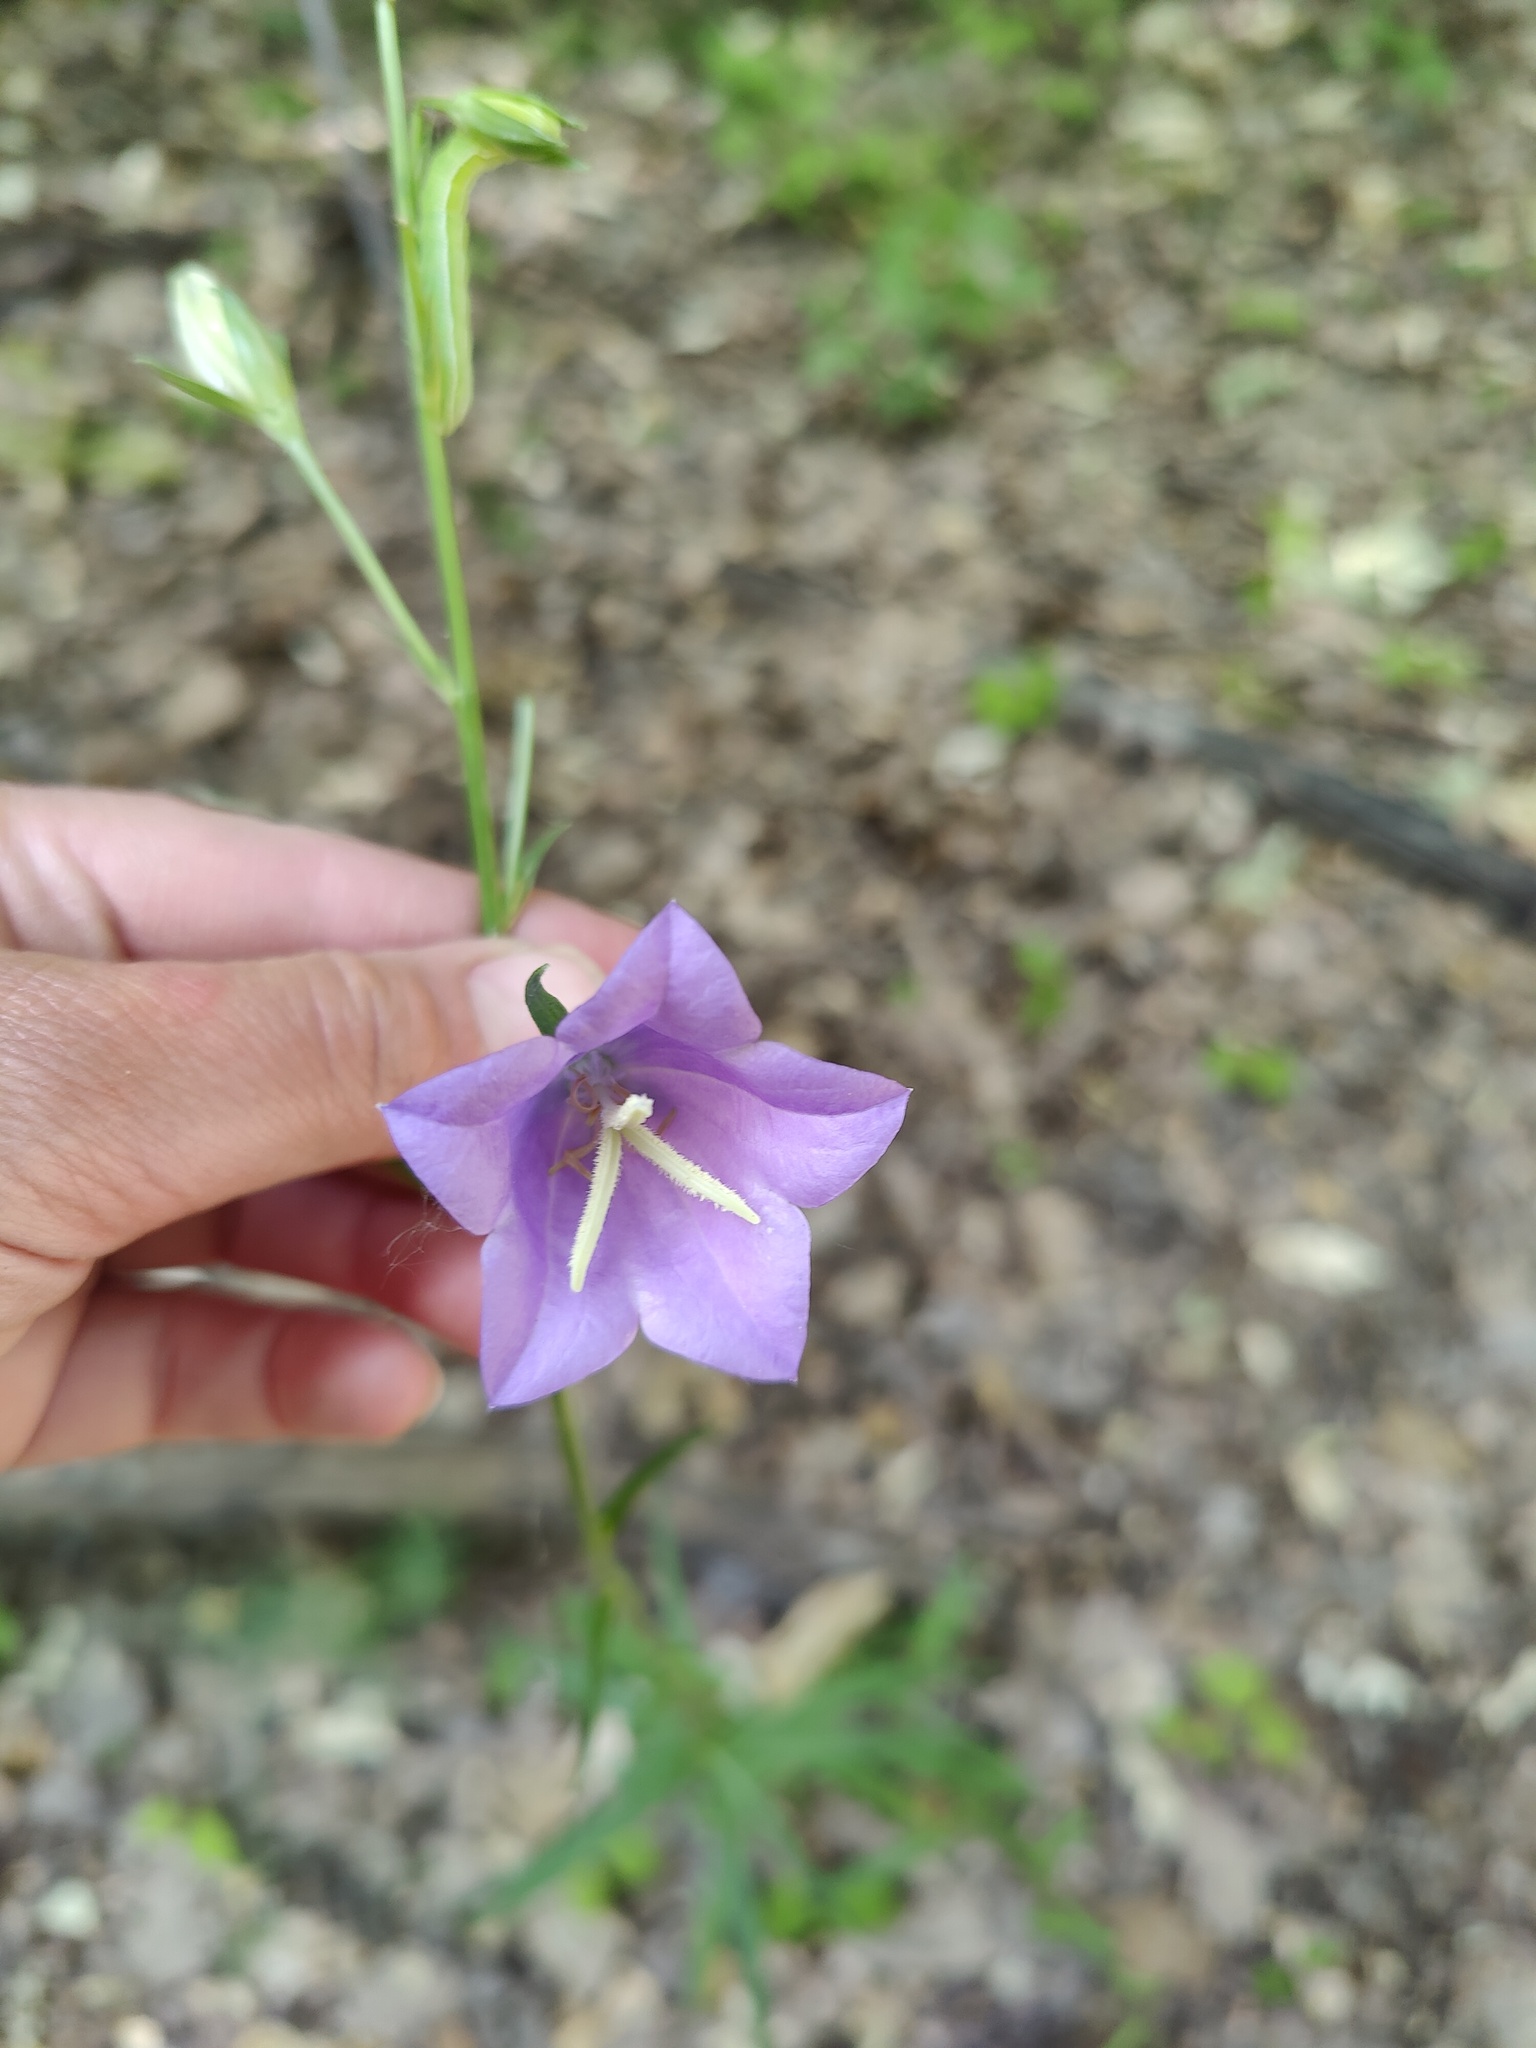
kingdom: Plantae
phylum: Tracheophyta
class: Magnoliopsida
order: Asterales
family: Campanulaceae
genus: Campanula
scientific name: Campanula persicifolia
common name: Peach-leaved bellflower
